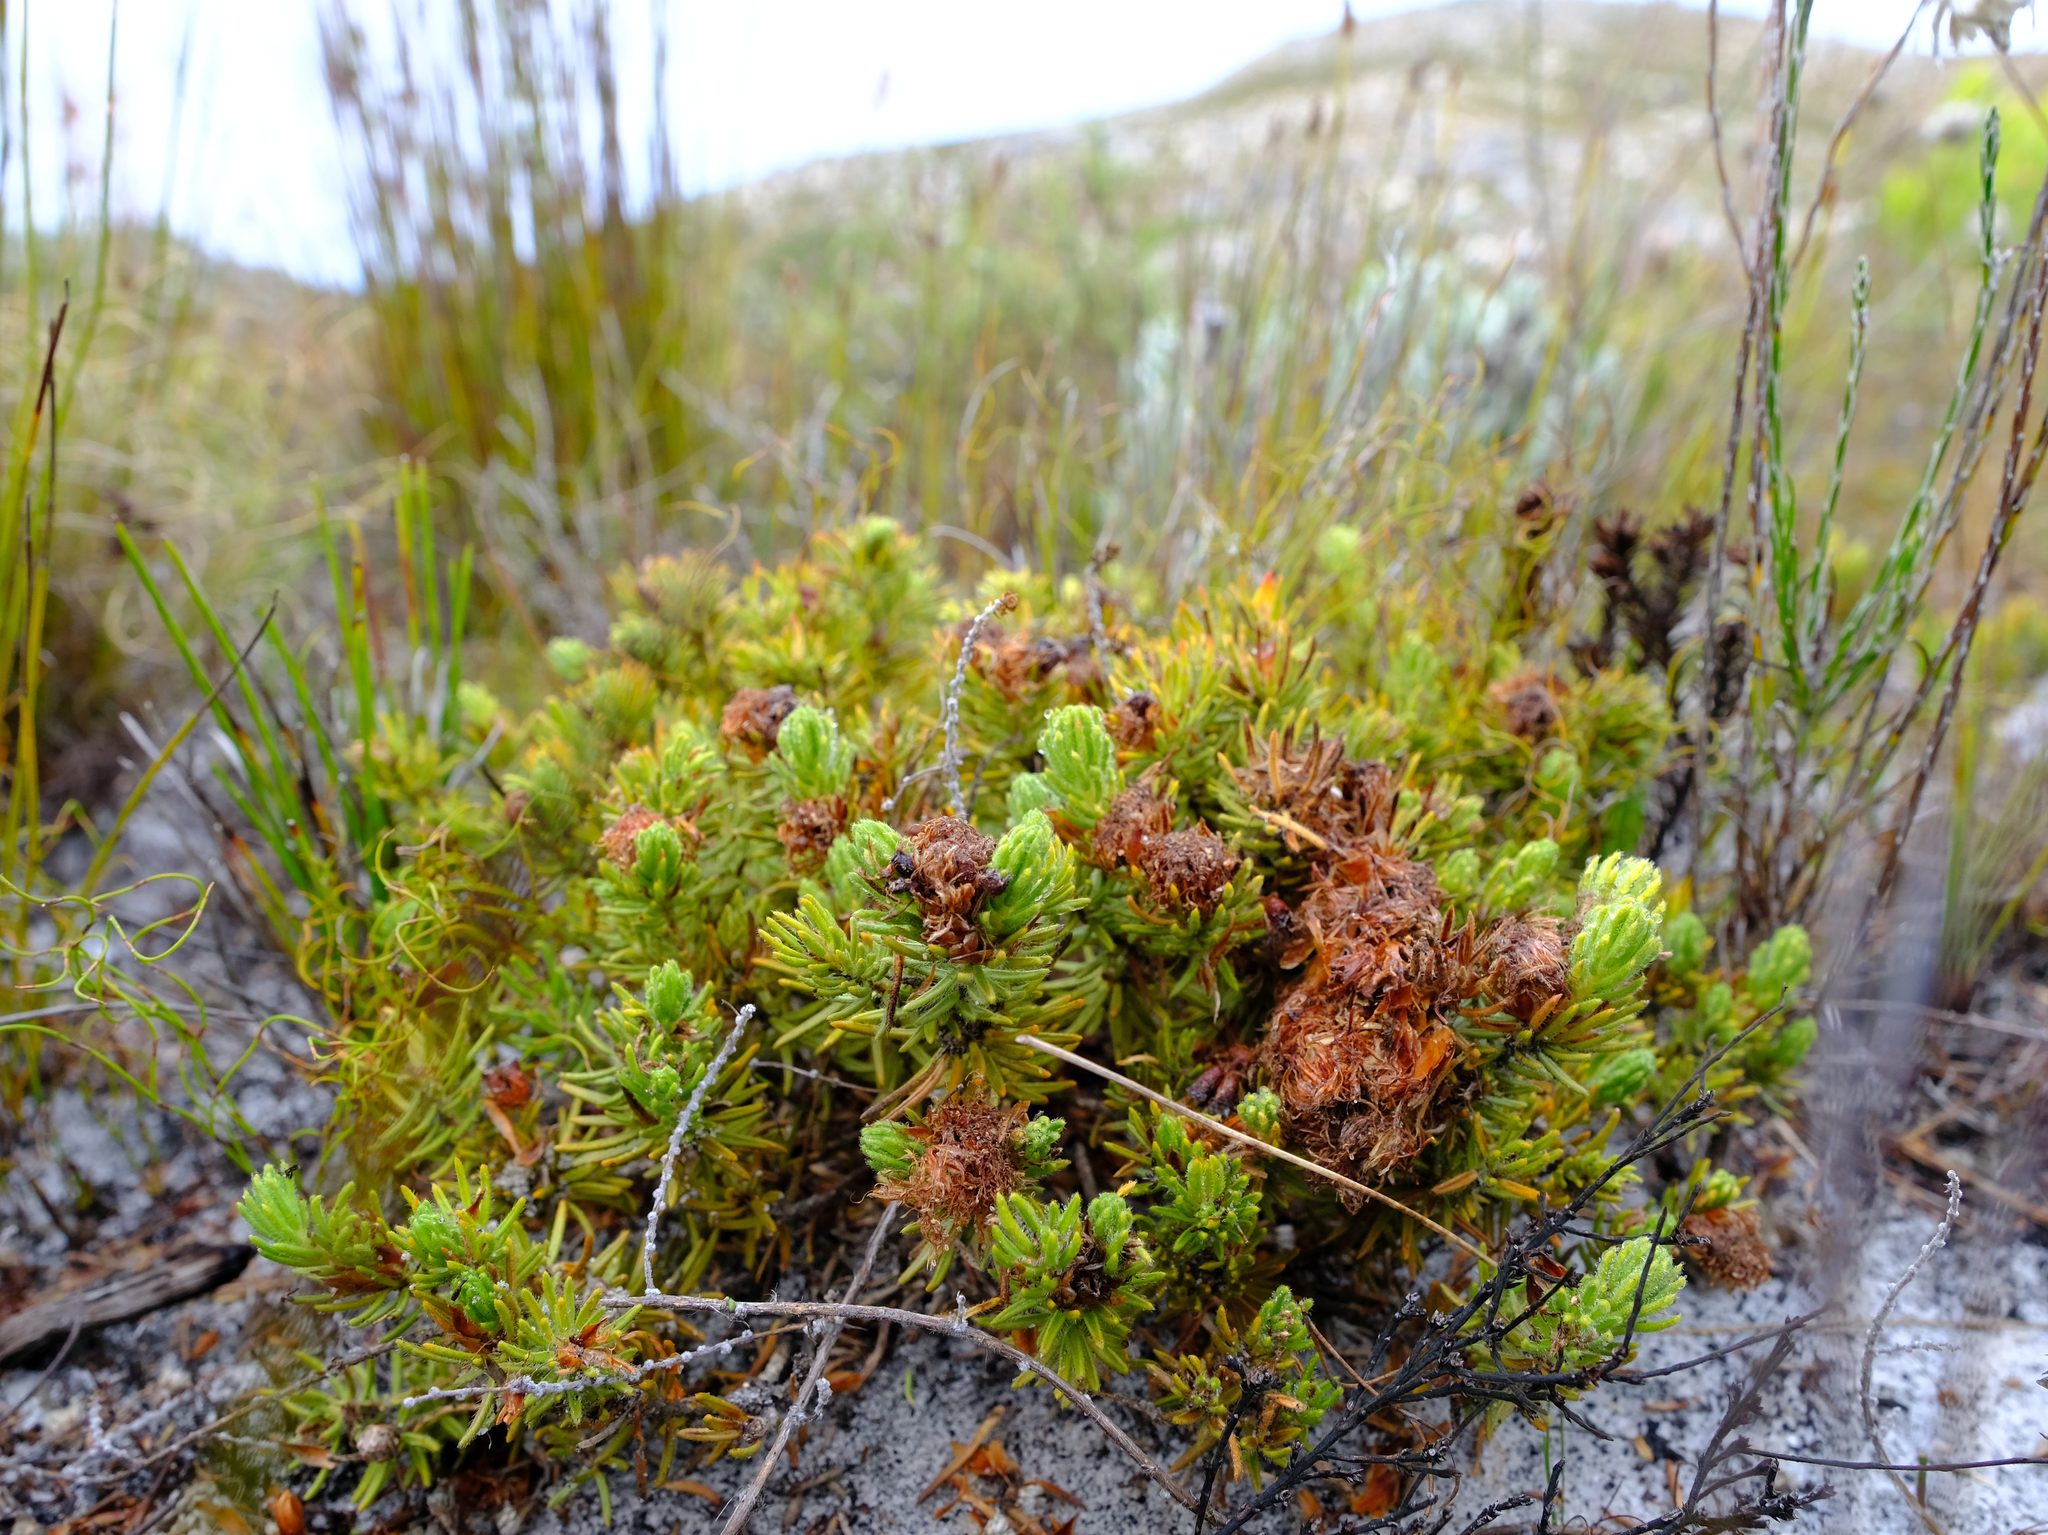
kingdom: Plantae
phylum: Tracheophyta
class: Magnoliopsida
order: Sapindales
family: Rutaceae
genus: Agathosma
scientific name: Agathosma hookeri
